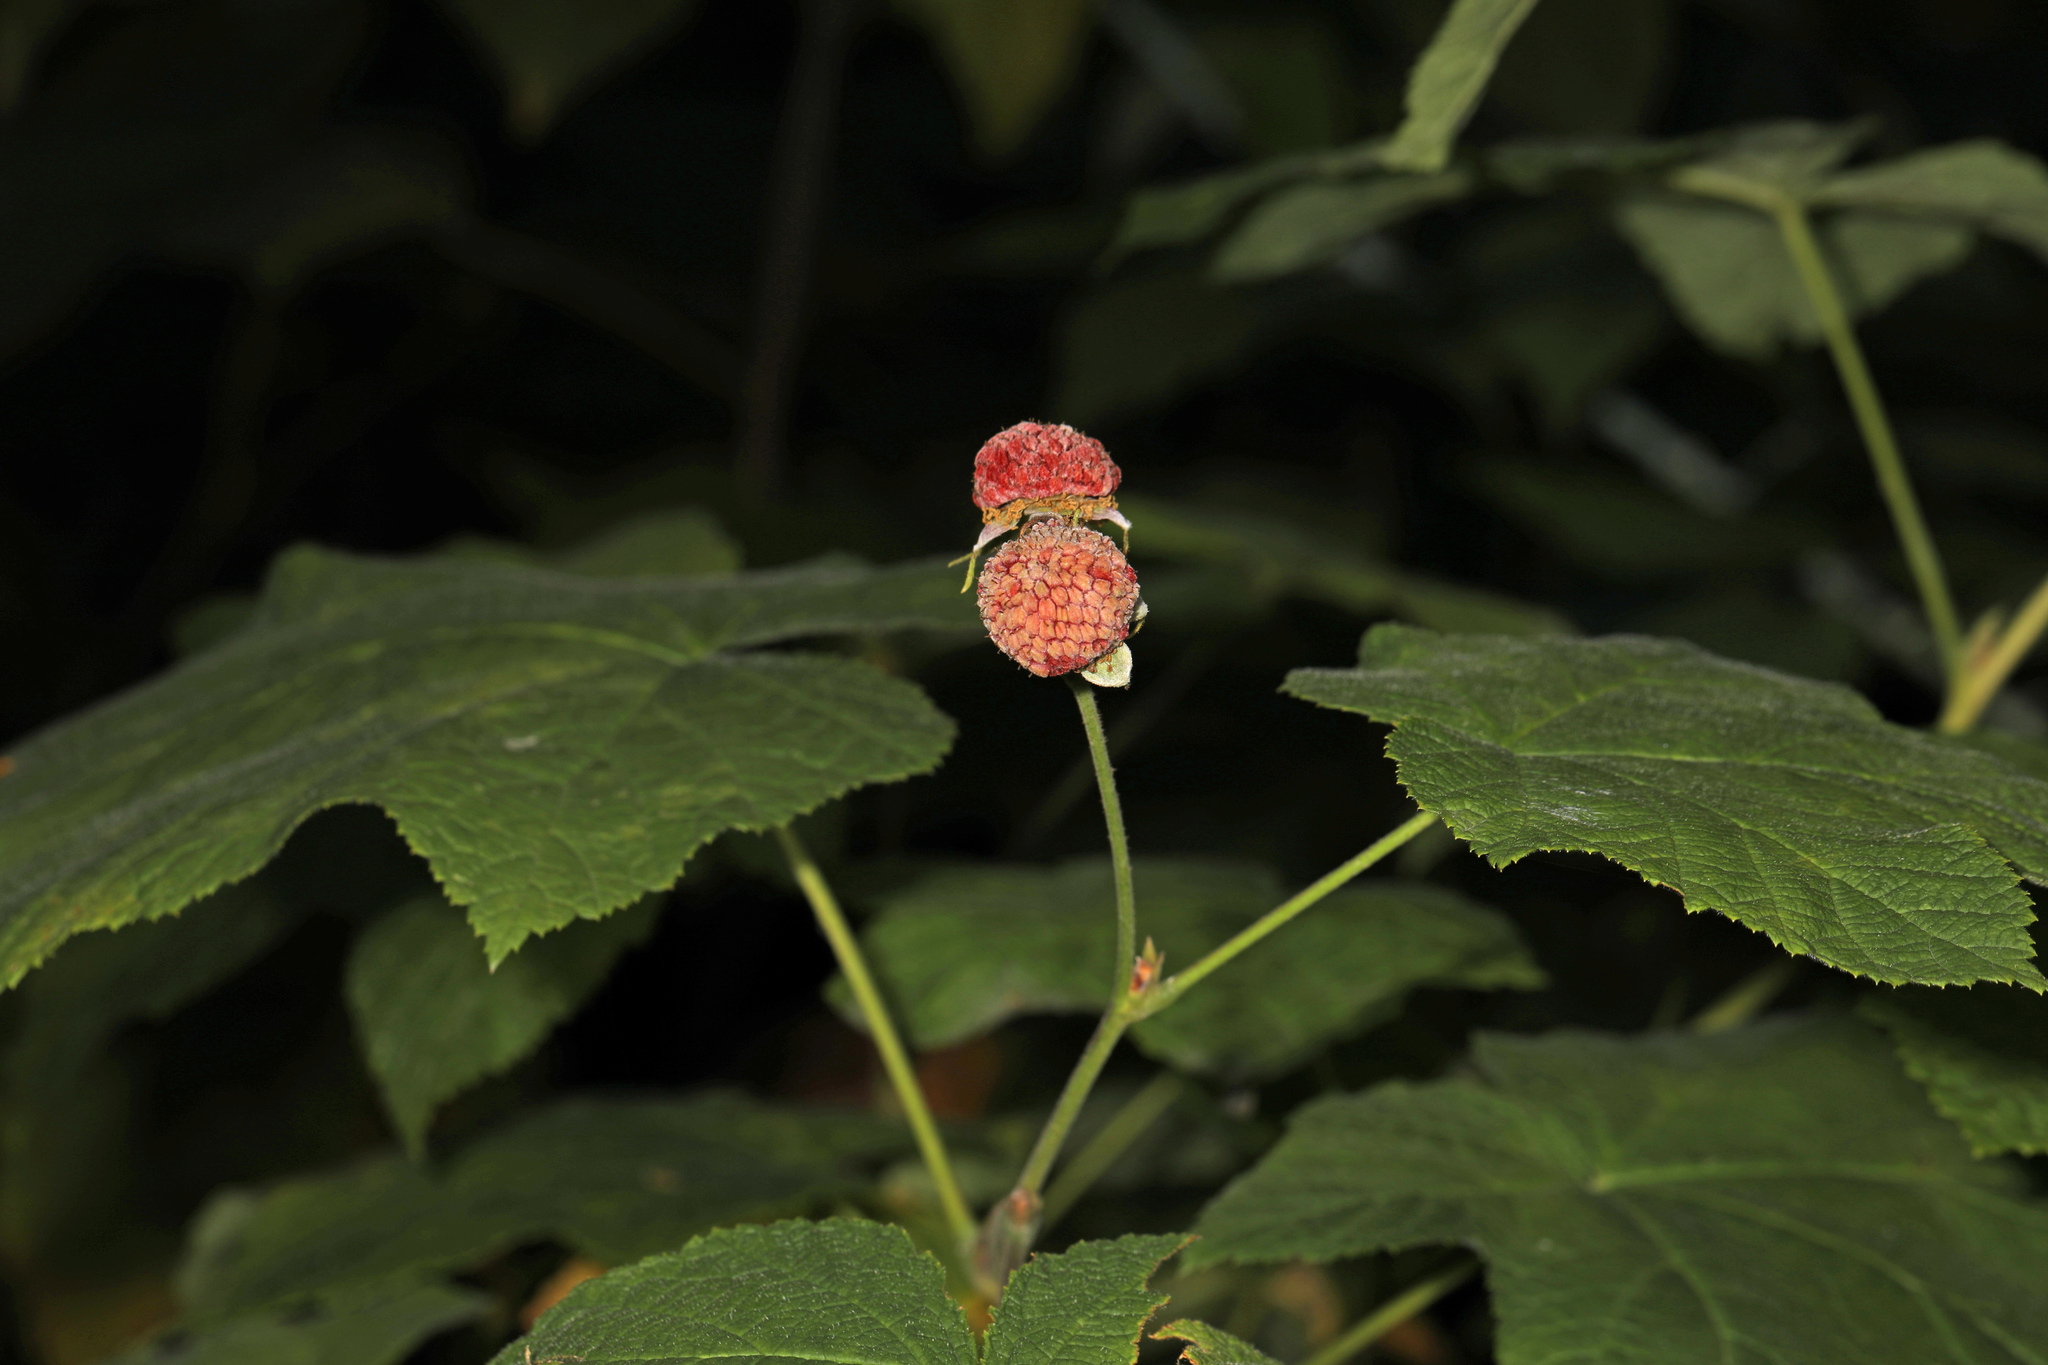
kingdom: Plantae
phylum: Tracheophyta
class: Magnoliopsida
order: Rosales
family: Rosaceae
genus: Rubus
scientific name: Rubus parviflorus
